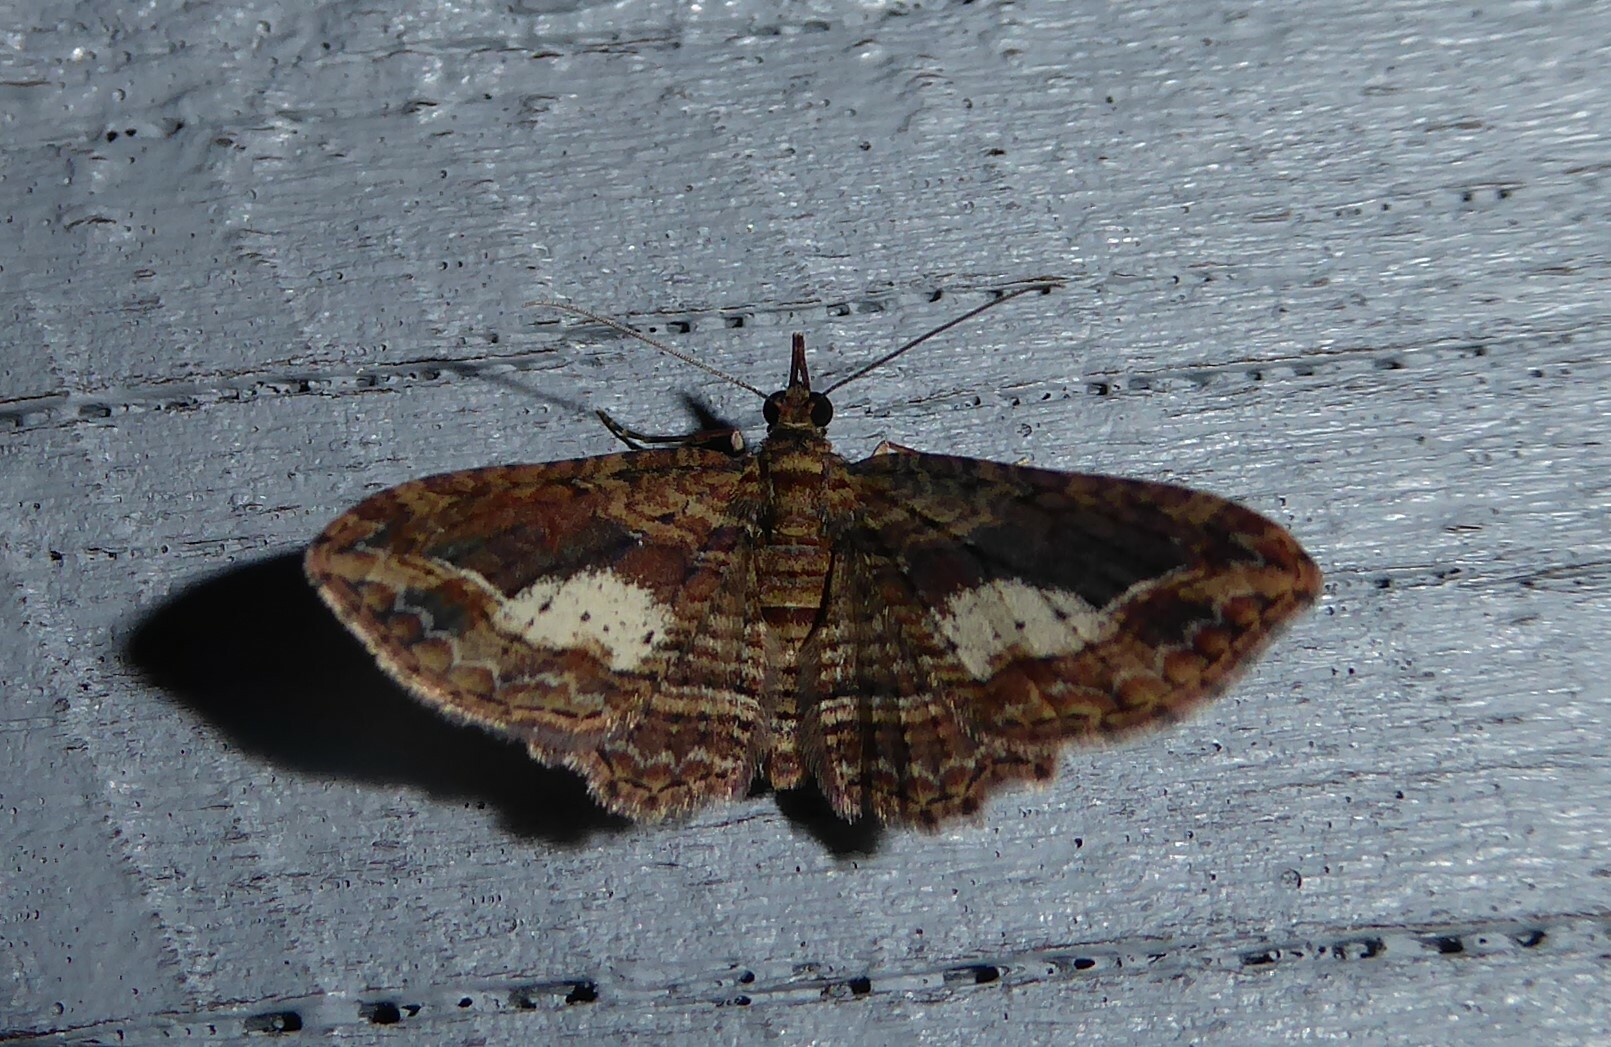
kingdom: Animalia
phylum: Arthropoda
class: Insecta
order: Lepidoptera
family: Geometridae
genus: Chloroclystis
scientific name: Chloroclystis filata
